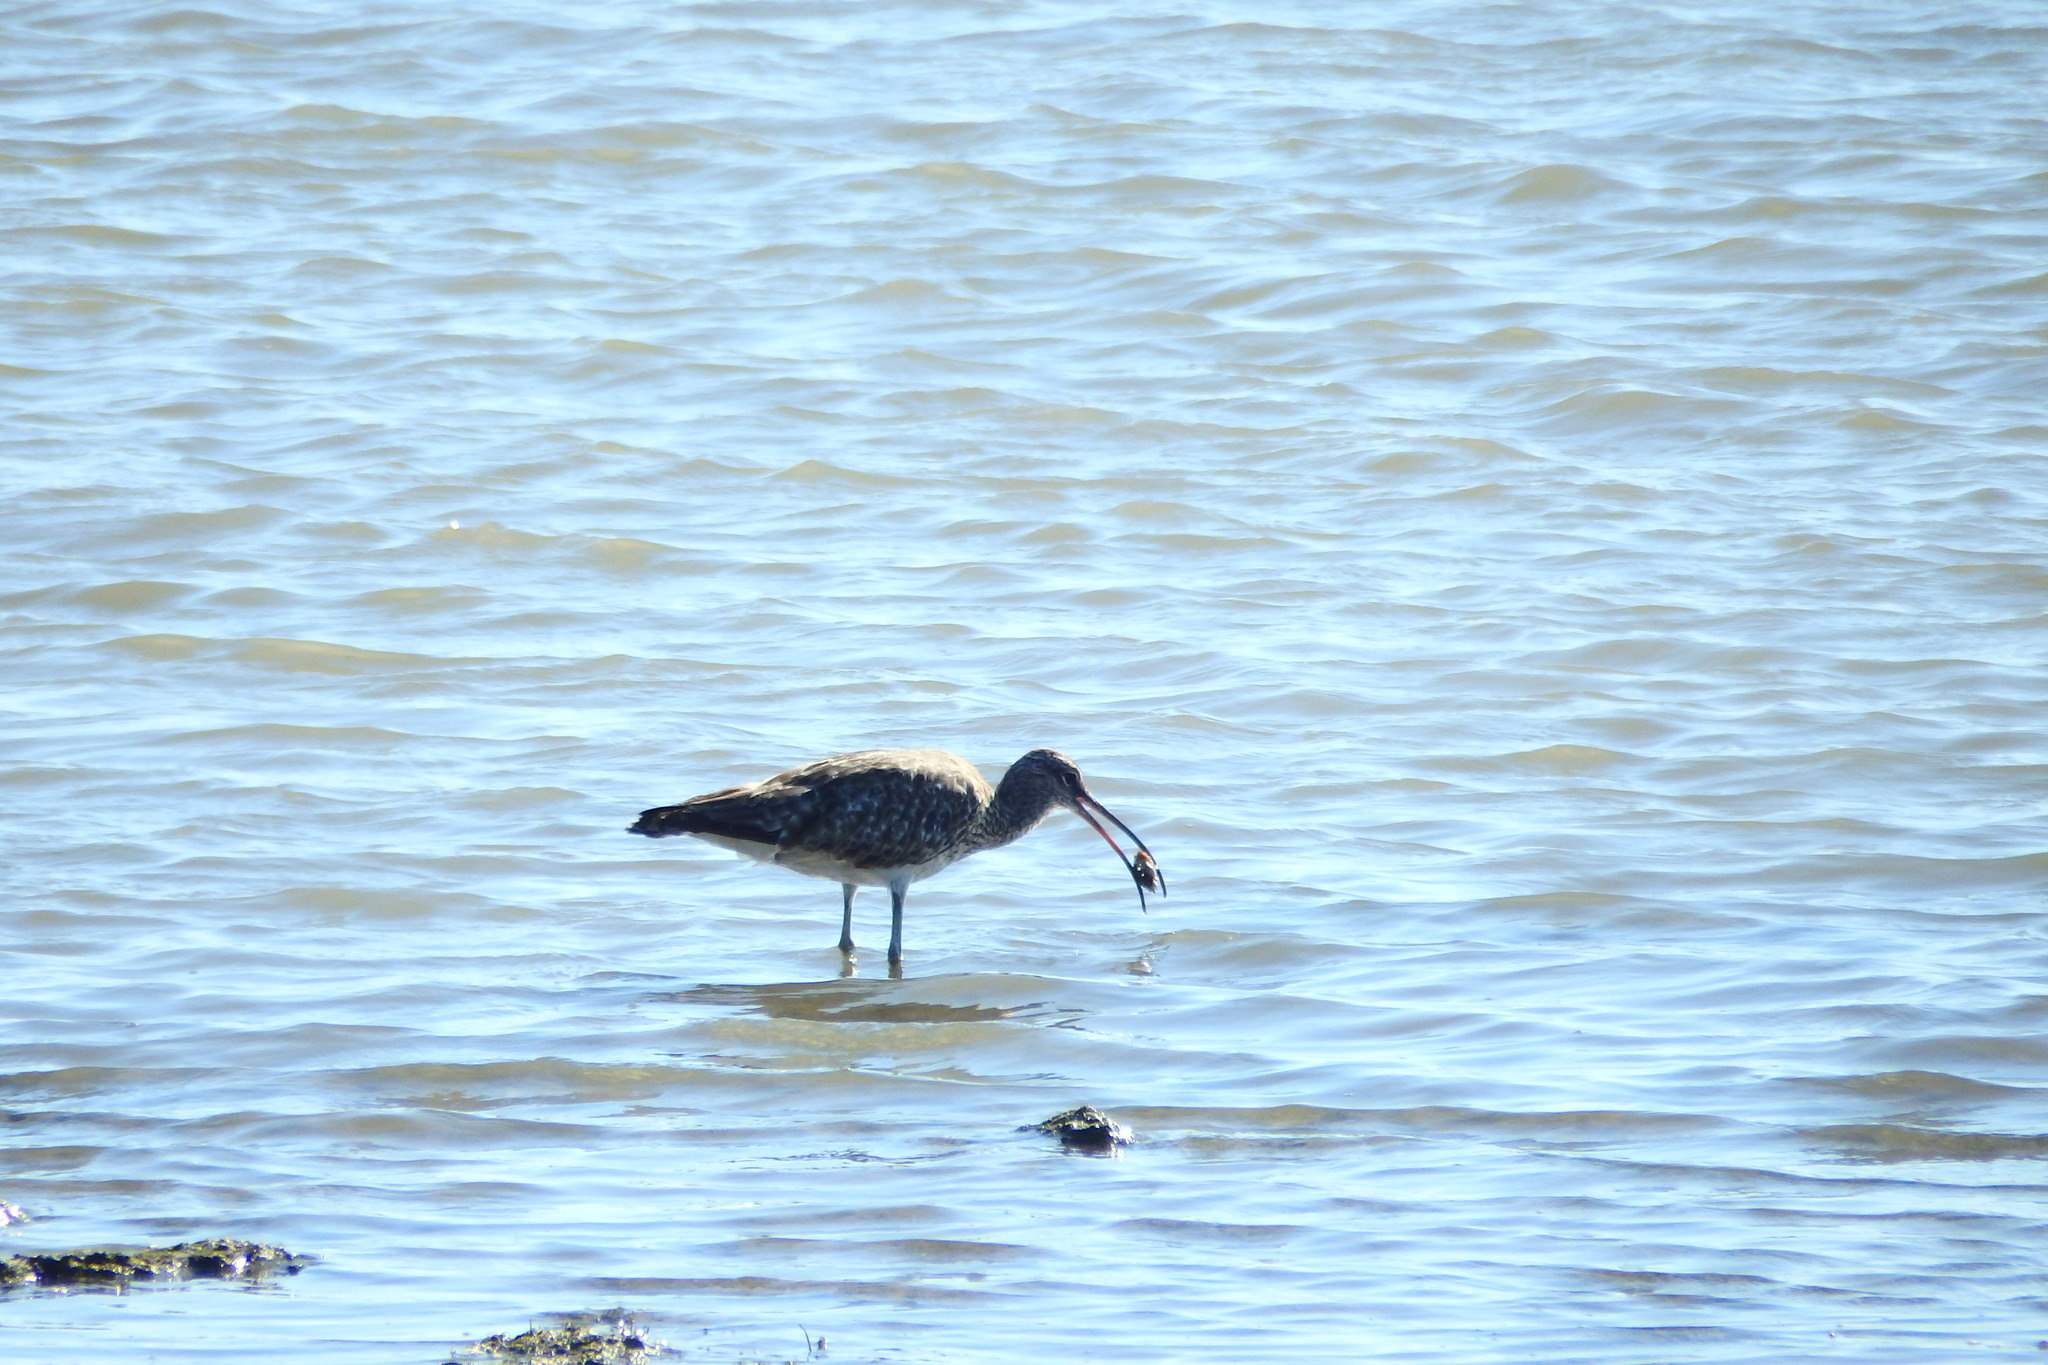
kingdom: Animalia
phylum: Chordata
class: Aves
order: Charadriiformes
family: Scolopacidae
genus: Numenius
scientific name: Numenius arquata
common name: Eurasian curlew
